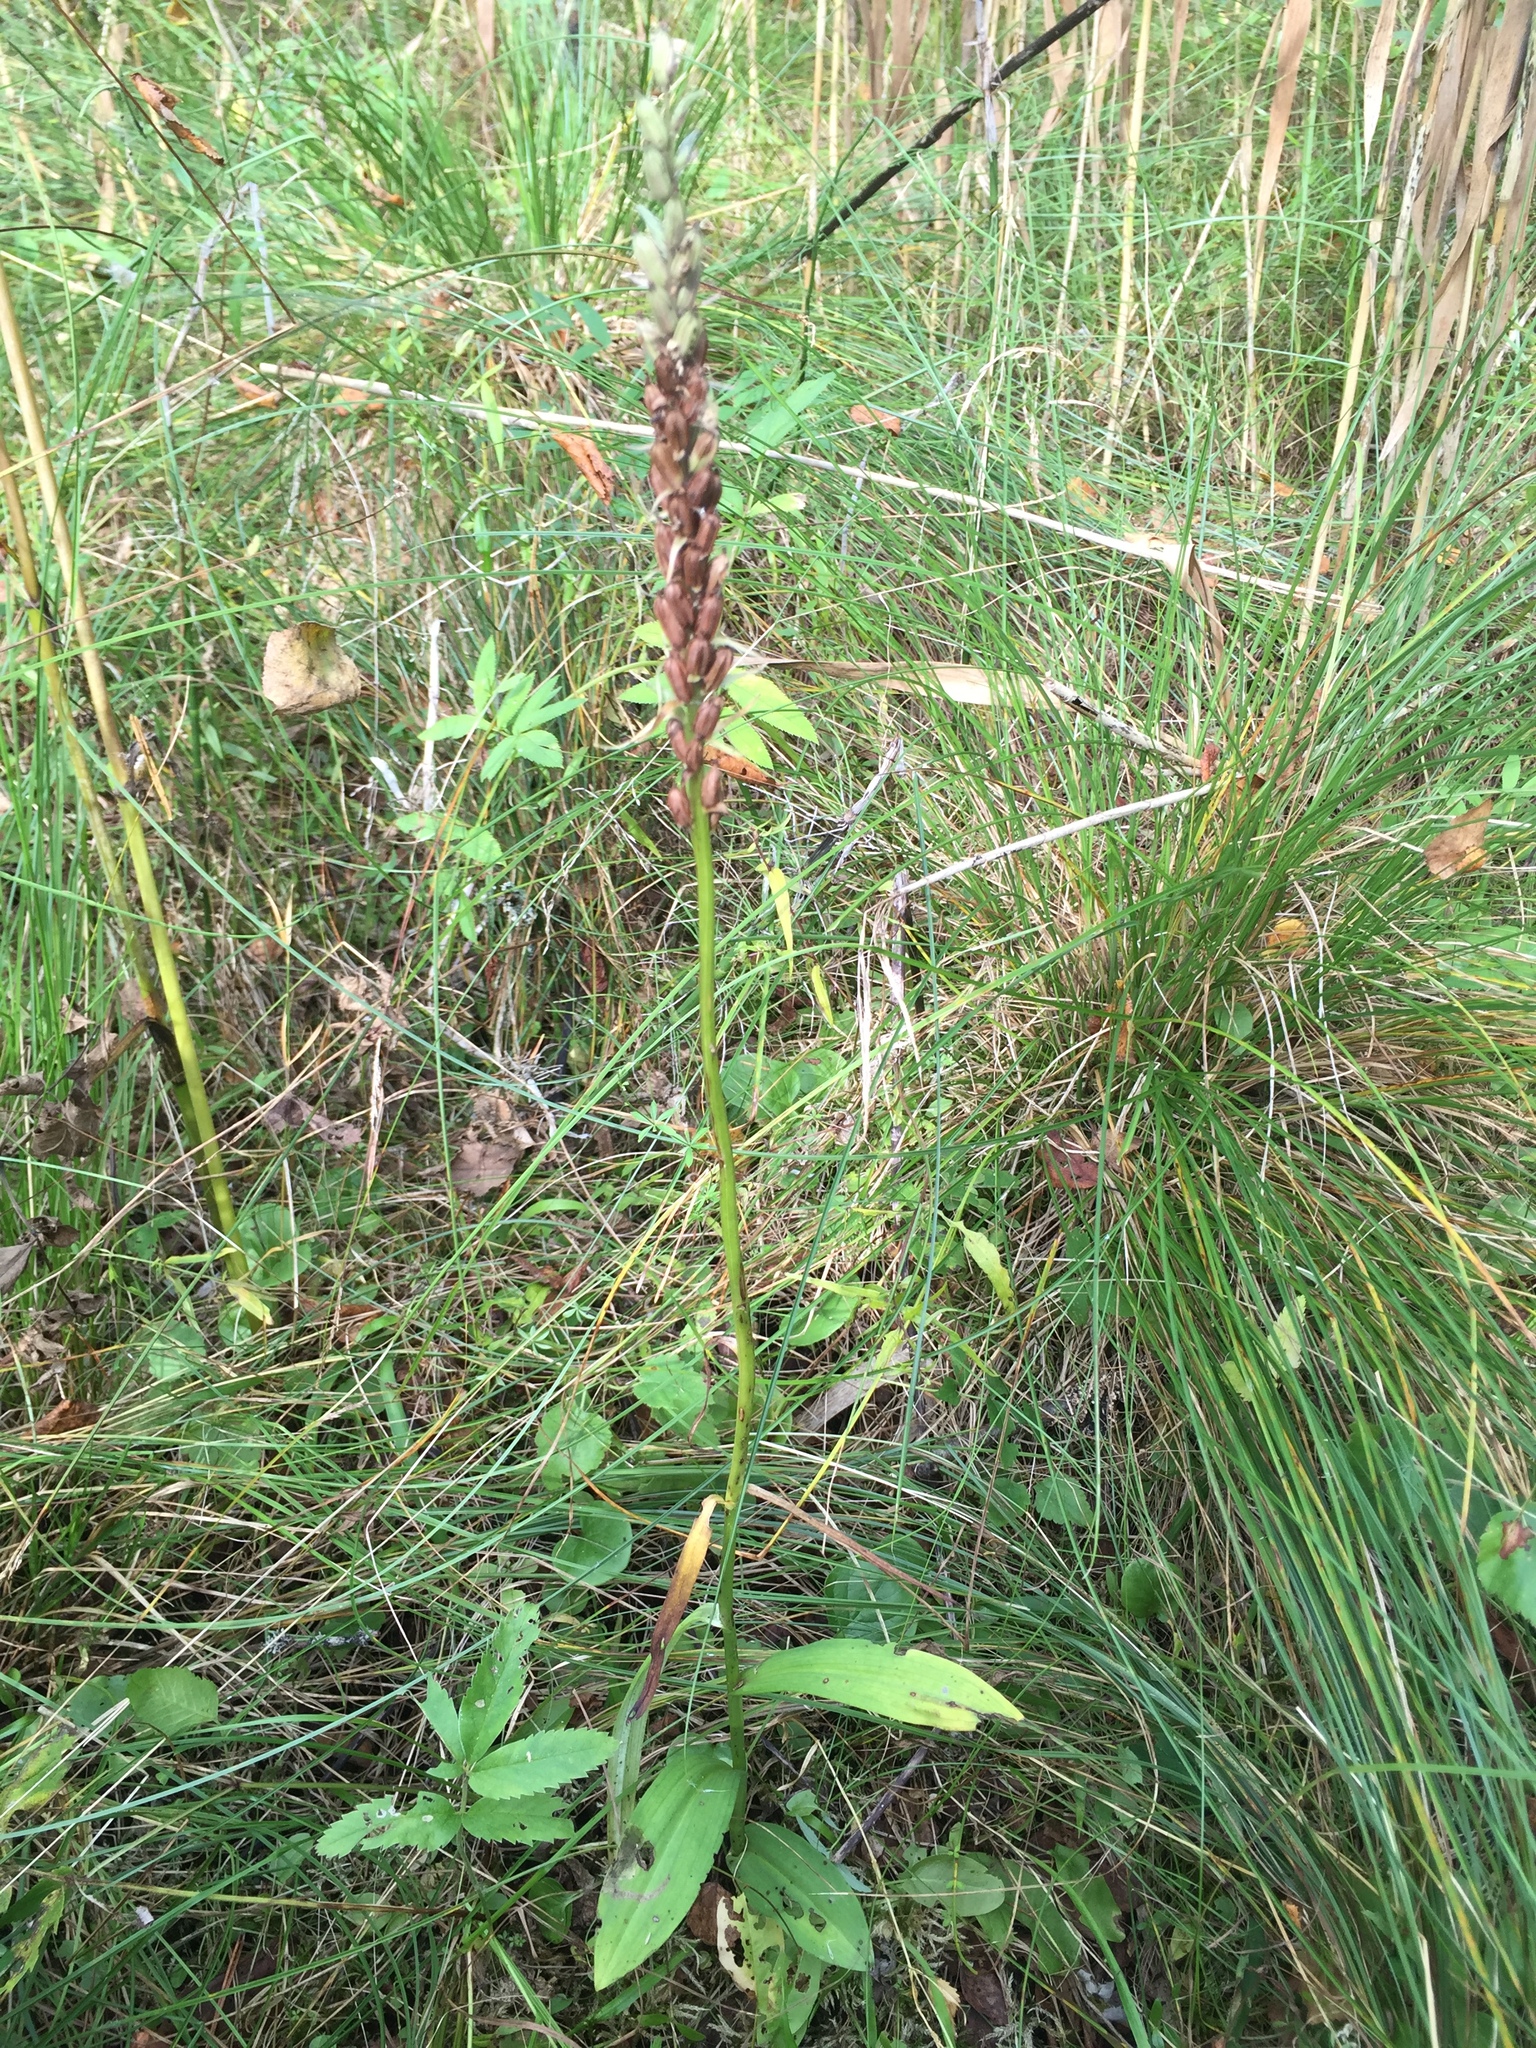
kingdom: Plantae
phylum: Tracheophyta
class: Liliopsida
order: Asparagales
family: Orchidaceae
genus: Dactylorhiza
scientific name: Dactylorhiza maculata
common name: Heath spotted-orchid
